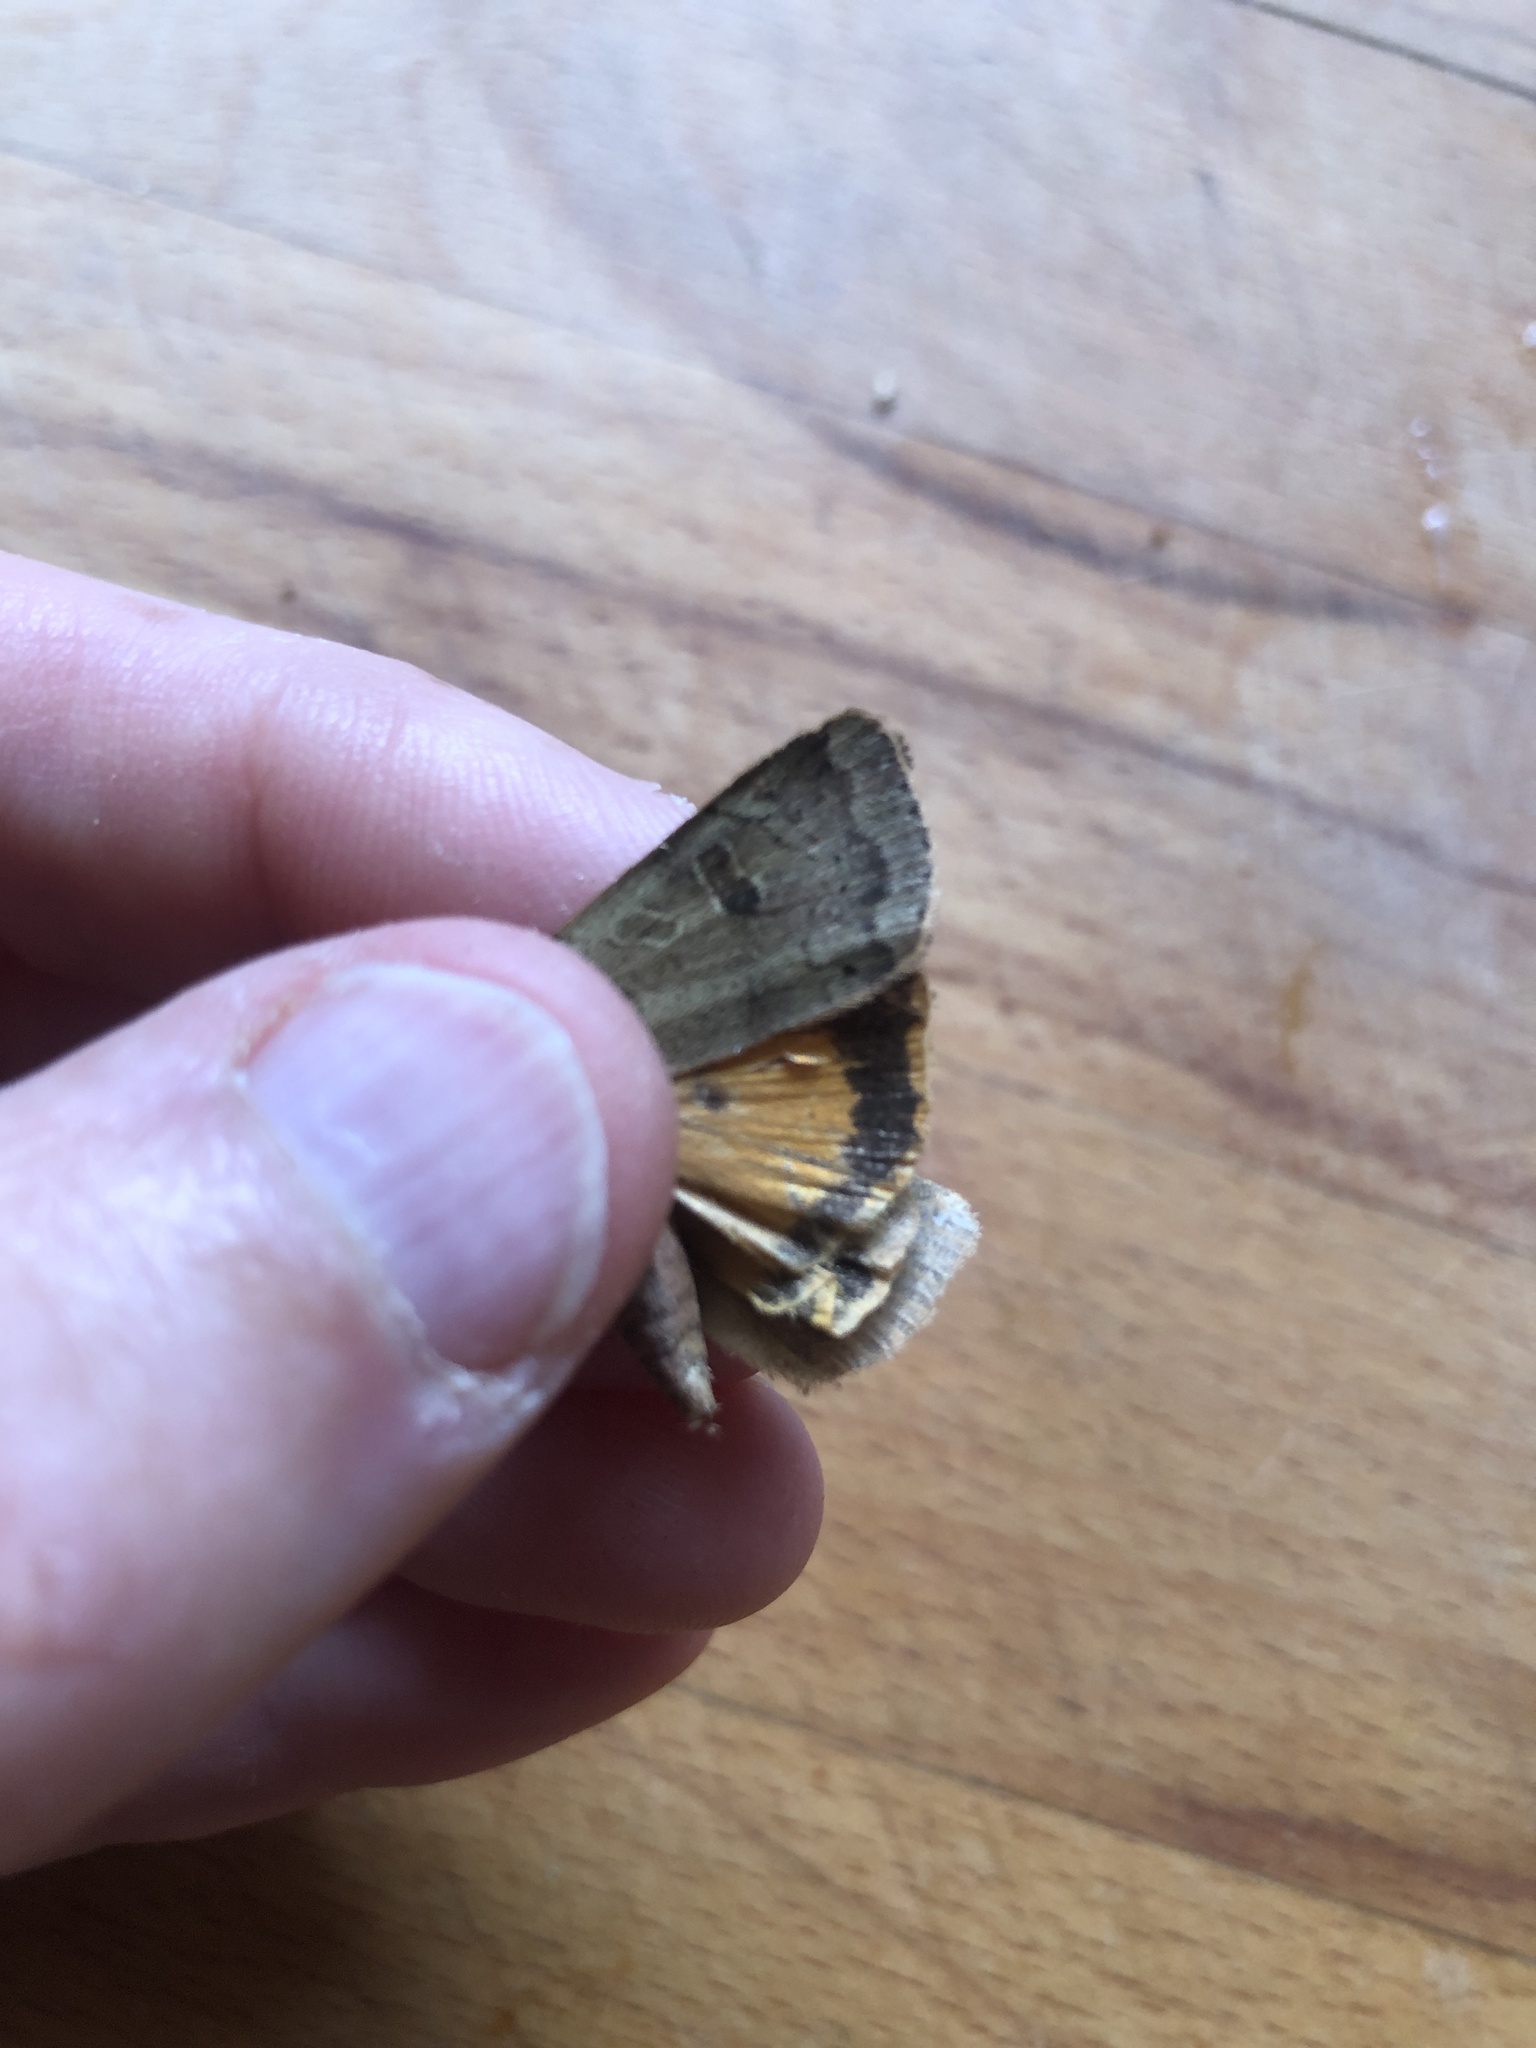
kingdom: Animalia
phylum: Arthropoda
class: Insecta
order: Lepidoptera
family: Noctuidae
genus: Noctua
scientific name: Noctua comes
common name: Lesser yellow underwing
